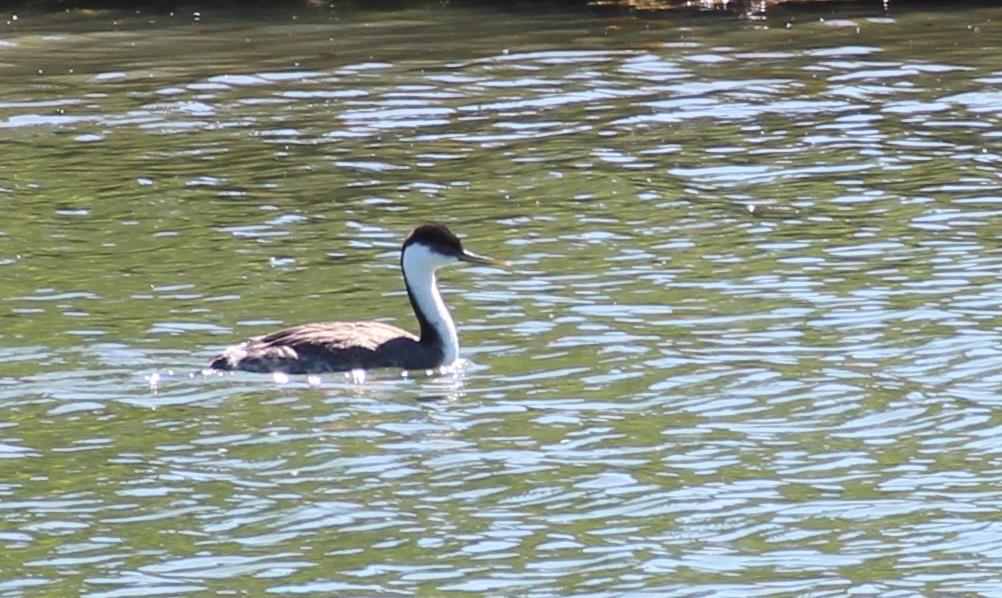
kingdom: Animalia
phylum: Chordata
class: Aves
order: Podicipediformes
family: Podicipedidae
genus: Aechmophorus
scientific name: Aechmophorus occidentalis
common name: Western grebe
